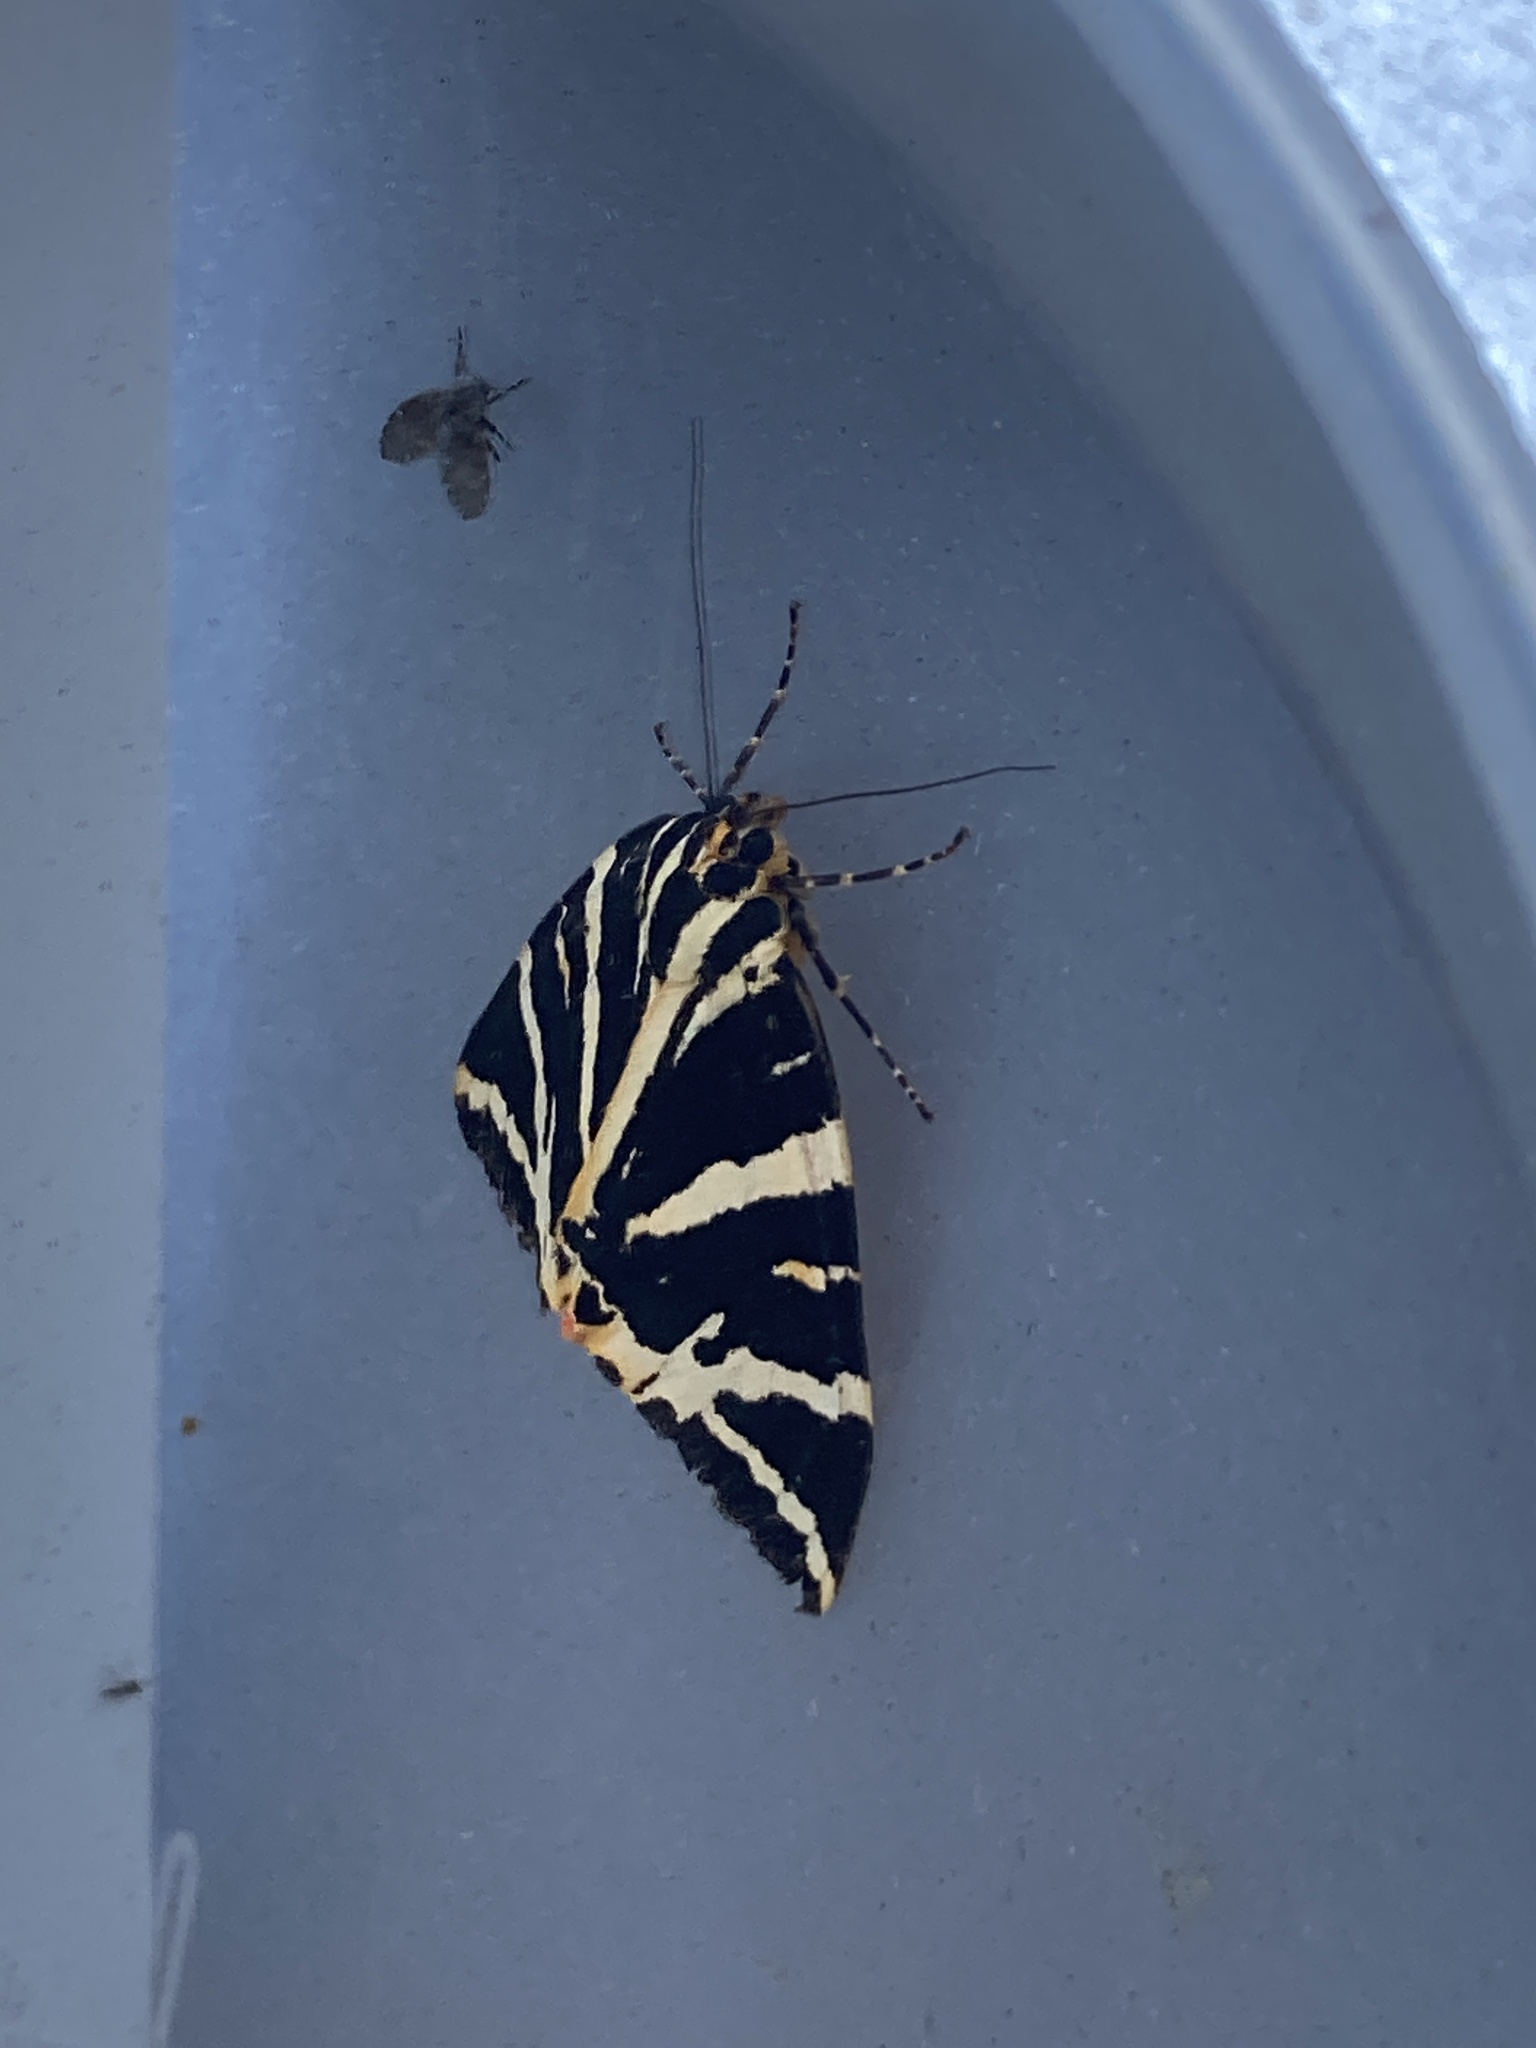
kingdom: Animalia
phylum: Arthropoda
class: Insecta
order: Lepidoptera
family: Erebidae
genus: Euplagia
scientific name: Euplagia quadripunctaria
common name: Jersey tiger
